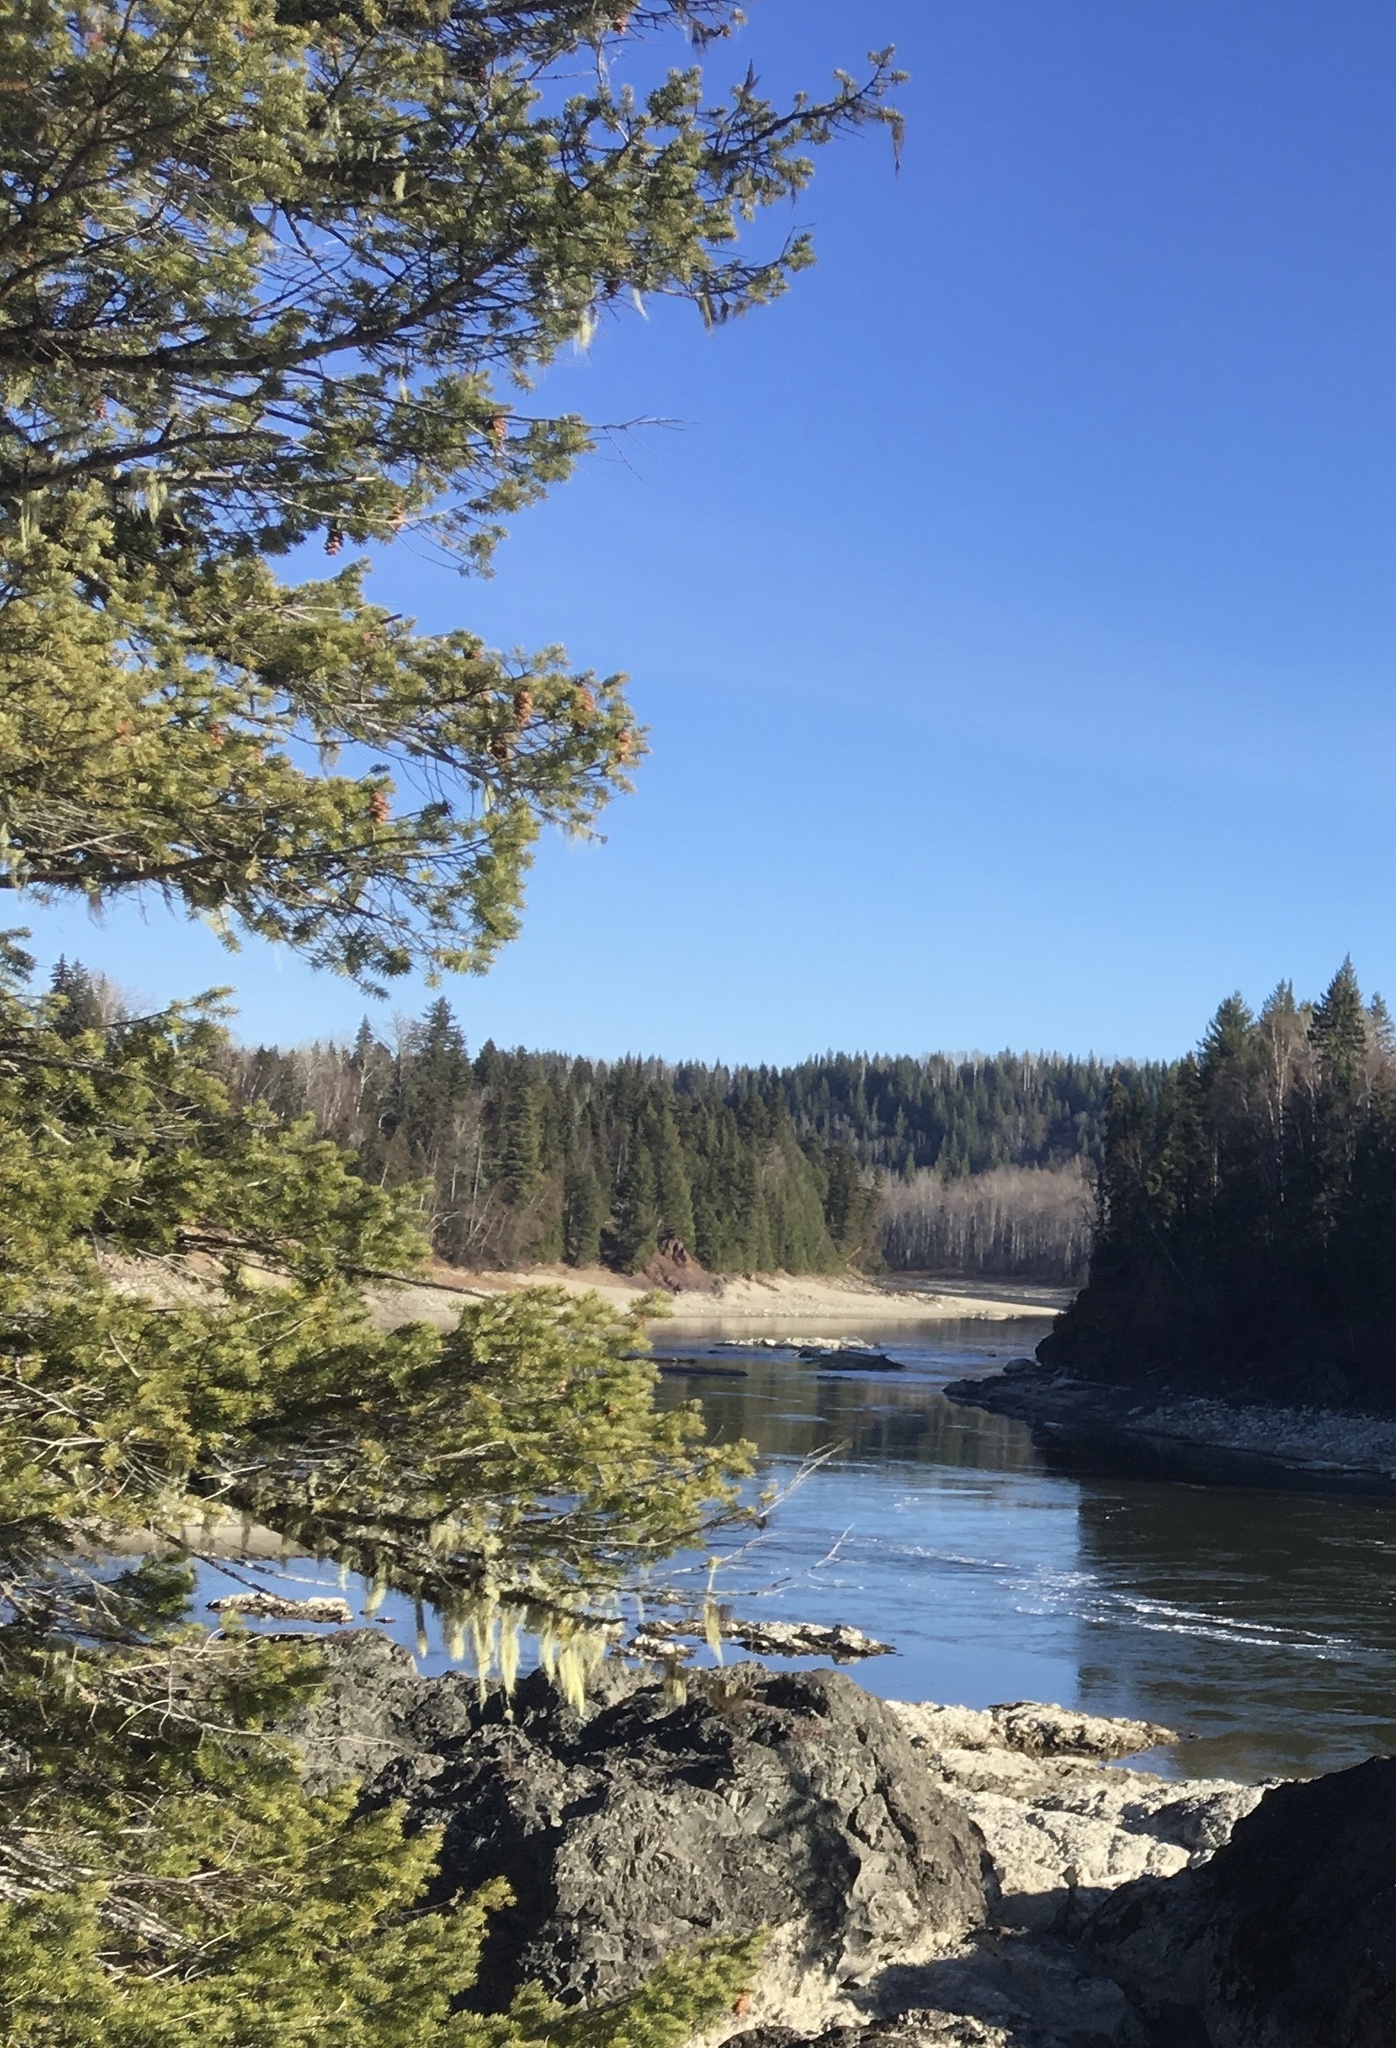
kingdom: Plantae
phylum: Tracheophyta
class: Pinopsida
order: Pinales
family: Pinaceae
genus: Pseudotsuga
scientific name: Pseudotsuga menziesii
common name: Douglas fir
